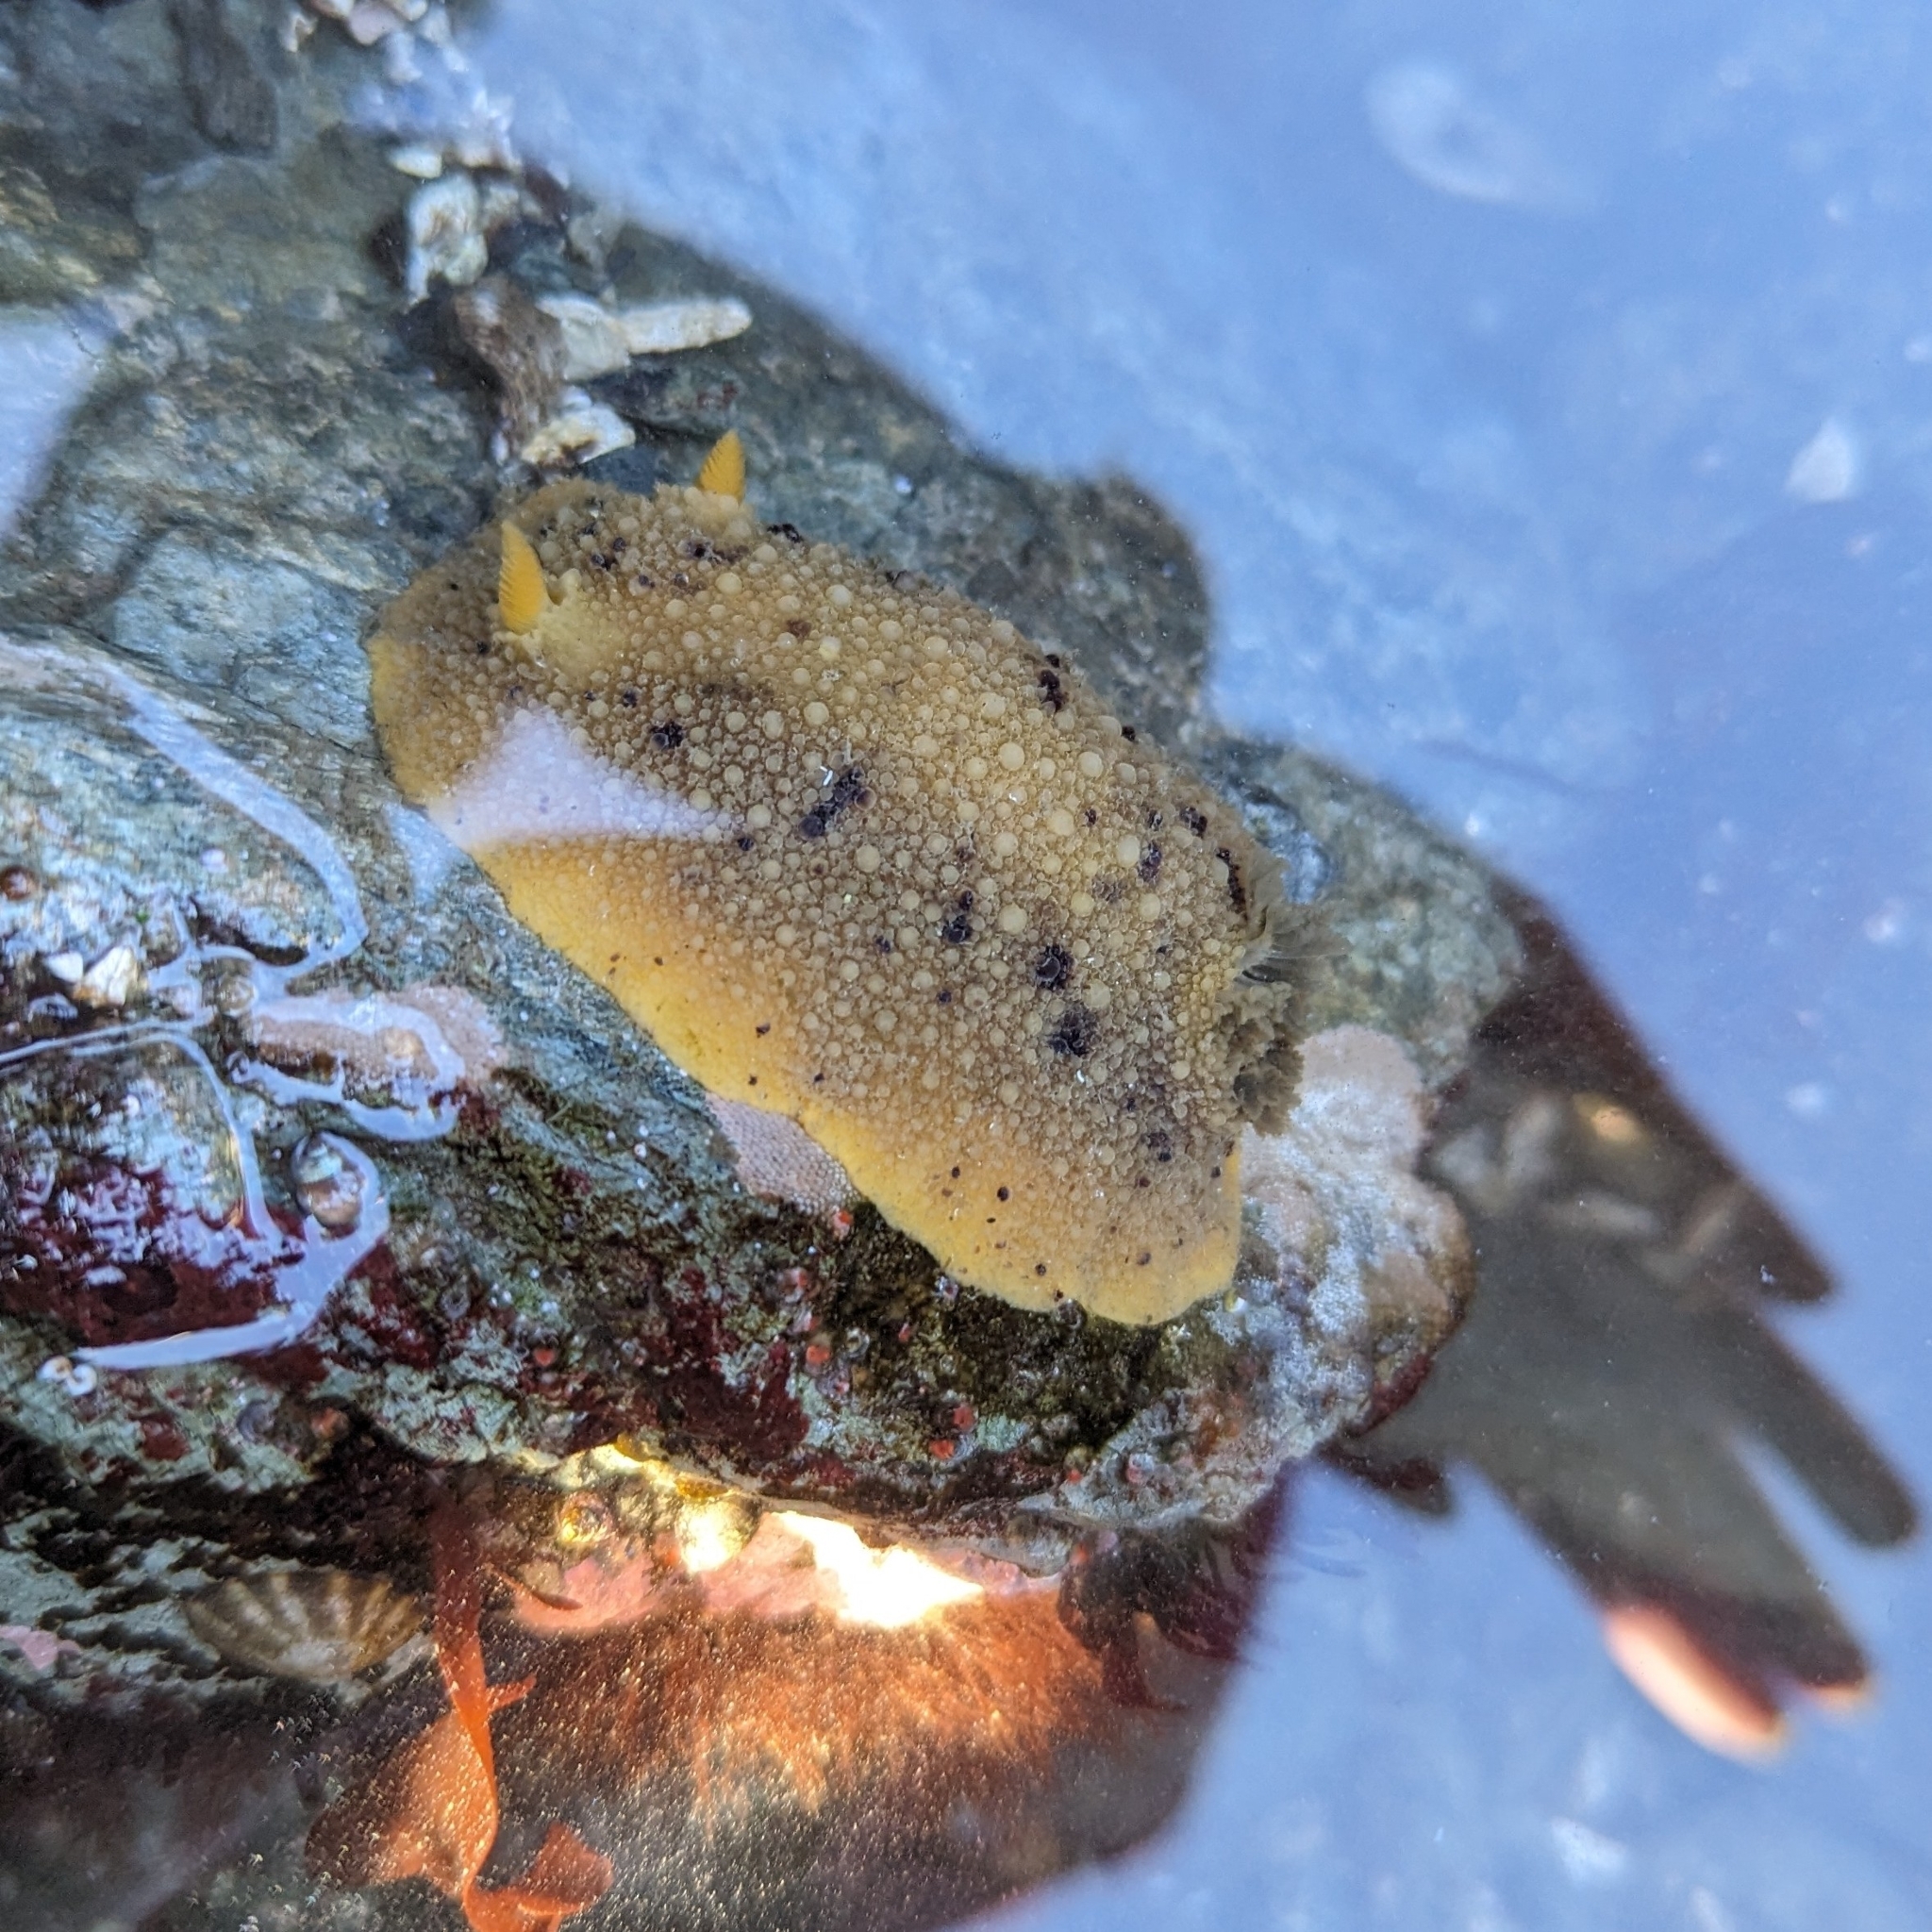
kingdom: Animalia
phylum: Mollusca
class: Gastropoda
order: Nudibranchia
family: Dorididae
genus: Doris
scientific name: Doris montereyensis
